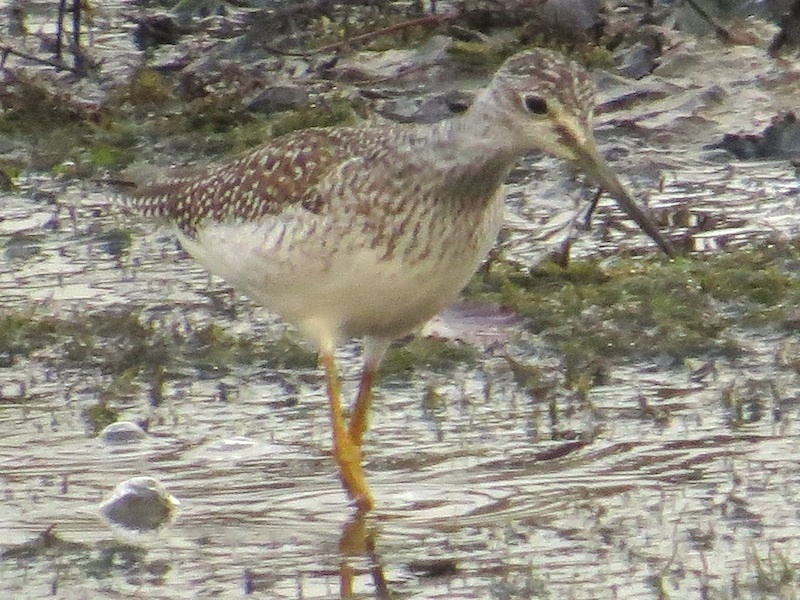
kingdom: Animalia
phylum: Chordata
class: Aves
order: Charadriiformes
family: Scolopacidae
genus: Tringa
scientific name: Tringa melanoleuca
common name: Greater yellowlegs
